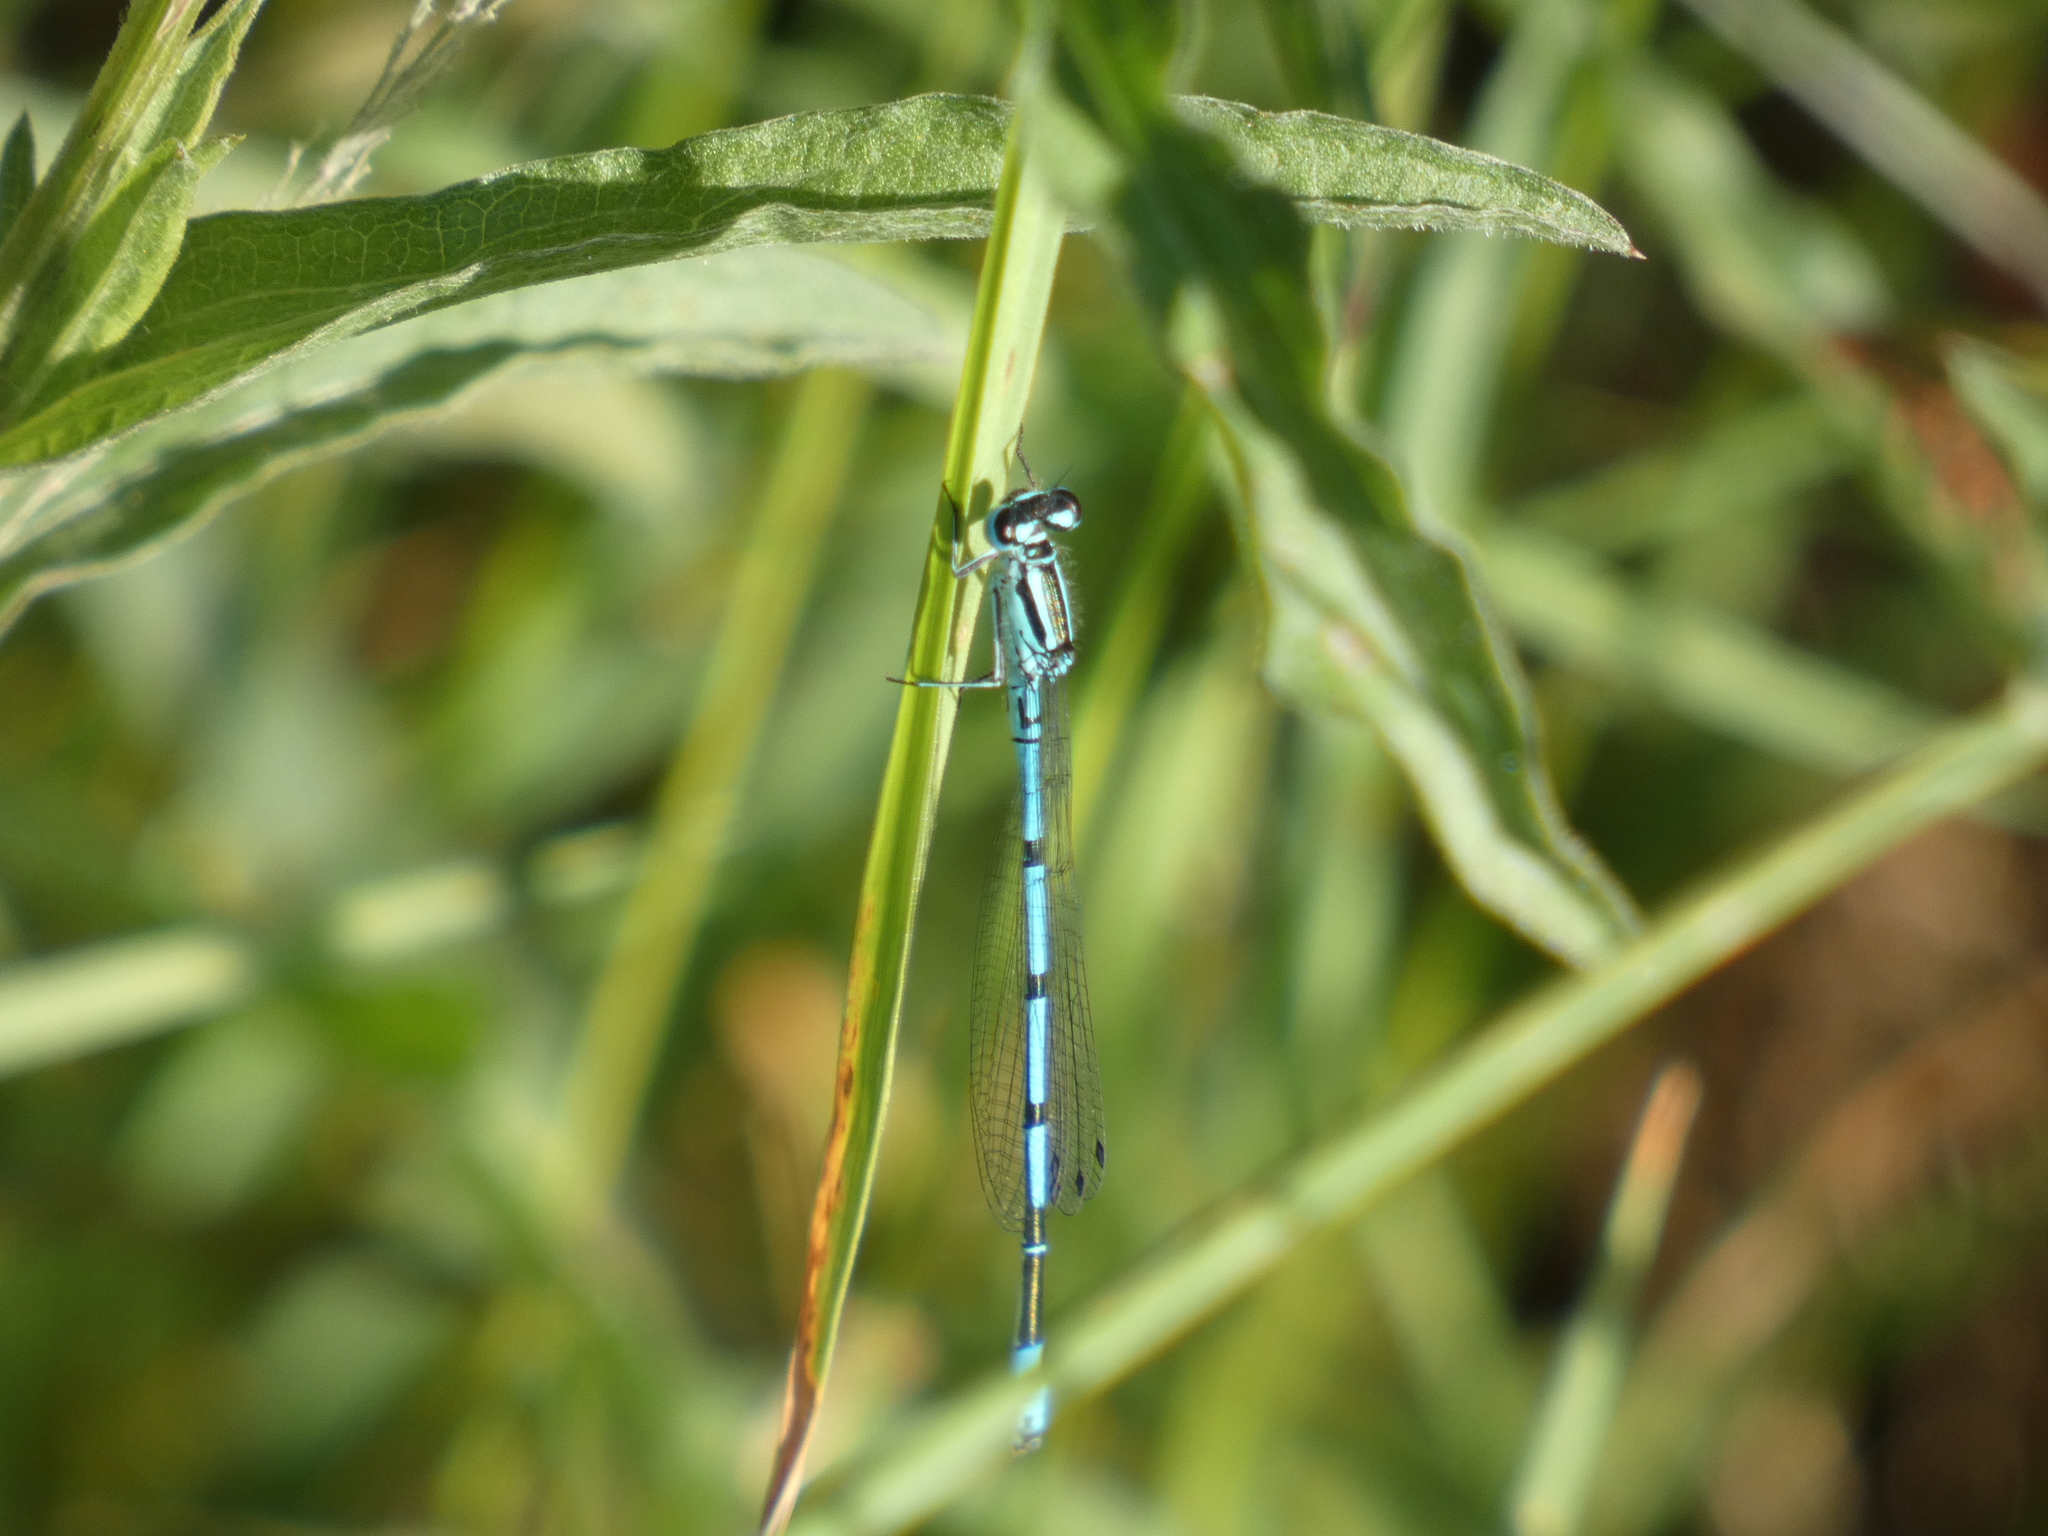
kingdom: Animalia
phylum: Arthropoda
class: Insecta
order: Odonata
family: Coenagrionidae
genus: Coenagrion
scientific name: Coenagrion puella
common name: Azure damselfly
